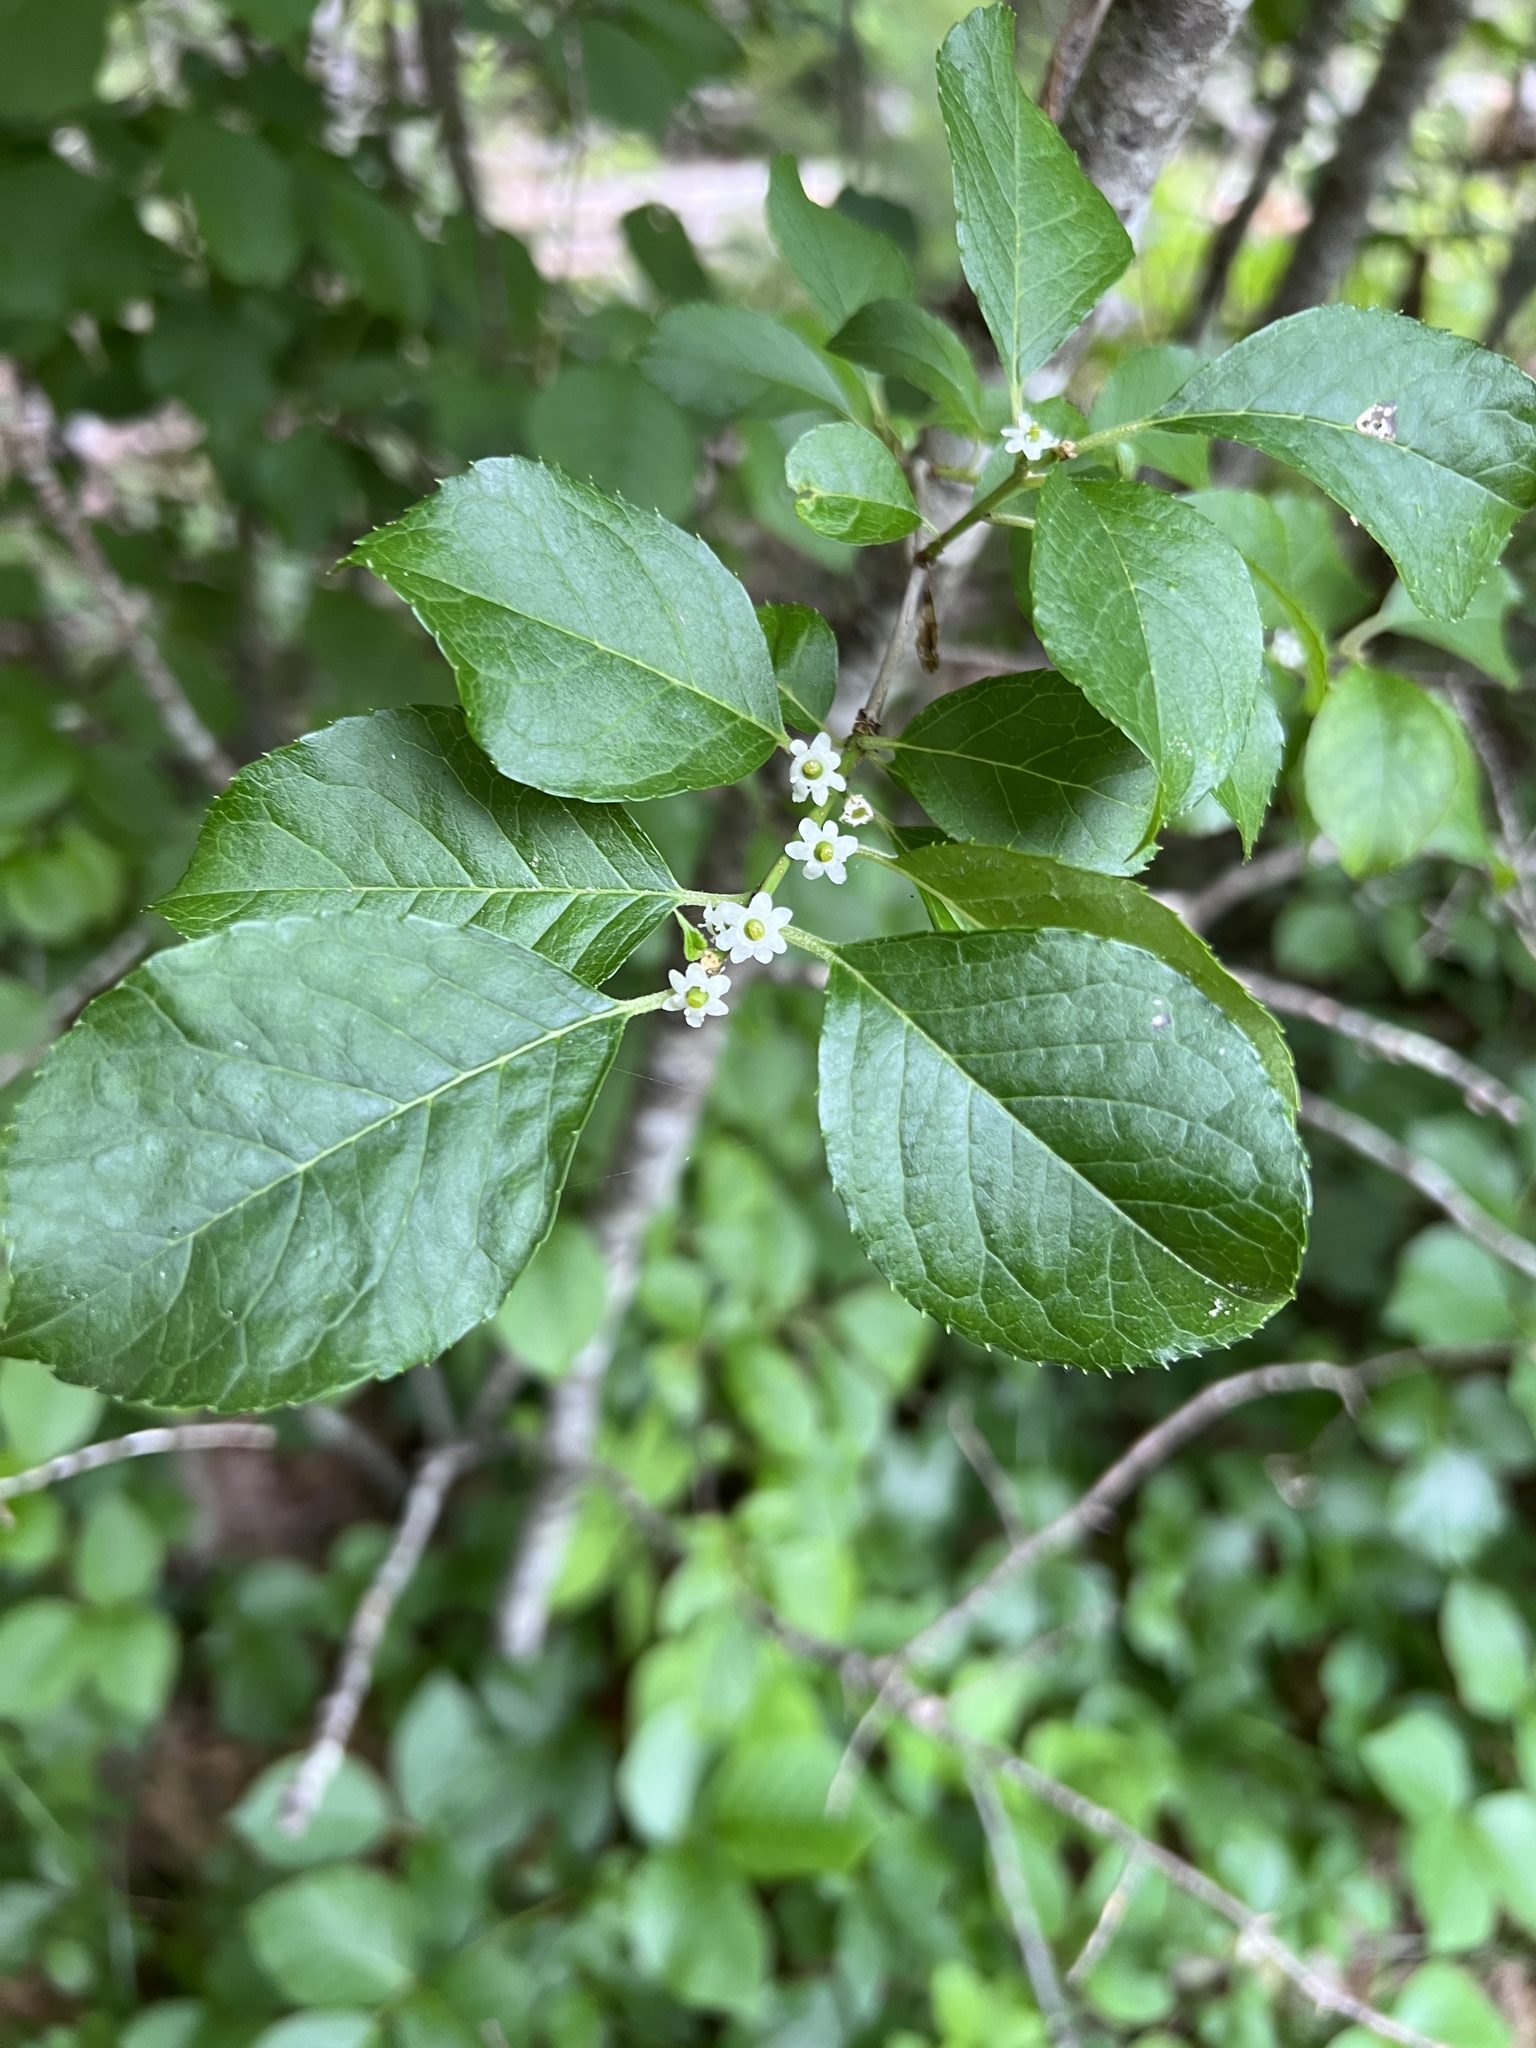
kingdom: Plantae
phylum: Tracheophyta
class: Magnoliopsida
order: Aquifoliales
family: Aquifoliaceae
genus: Ilex
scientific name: Ilex verticillata
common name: Virginia winterberry
